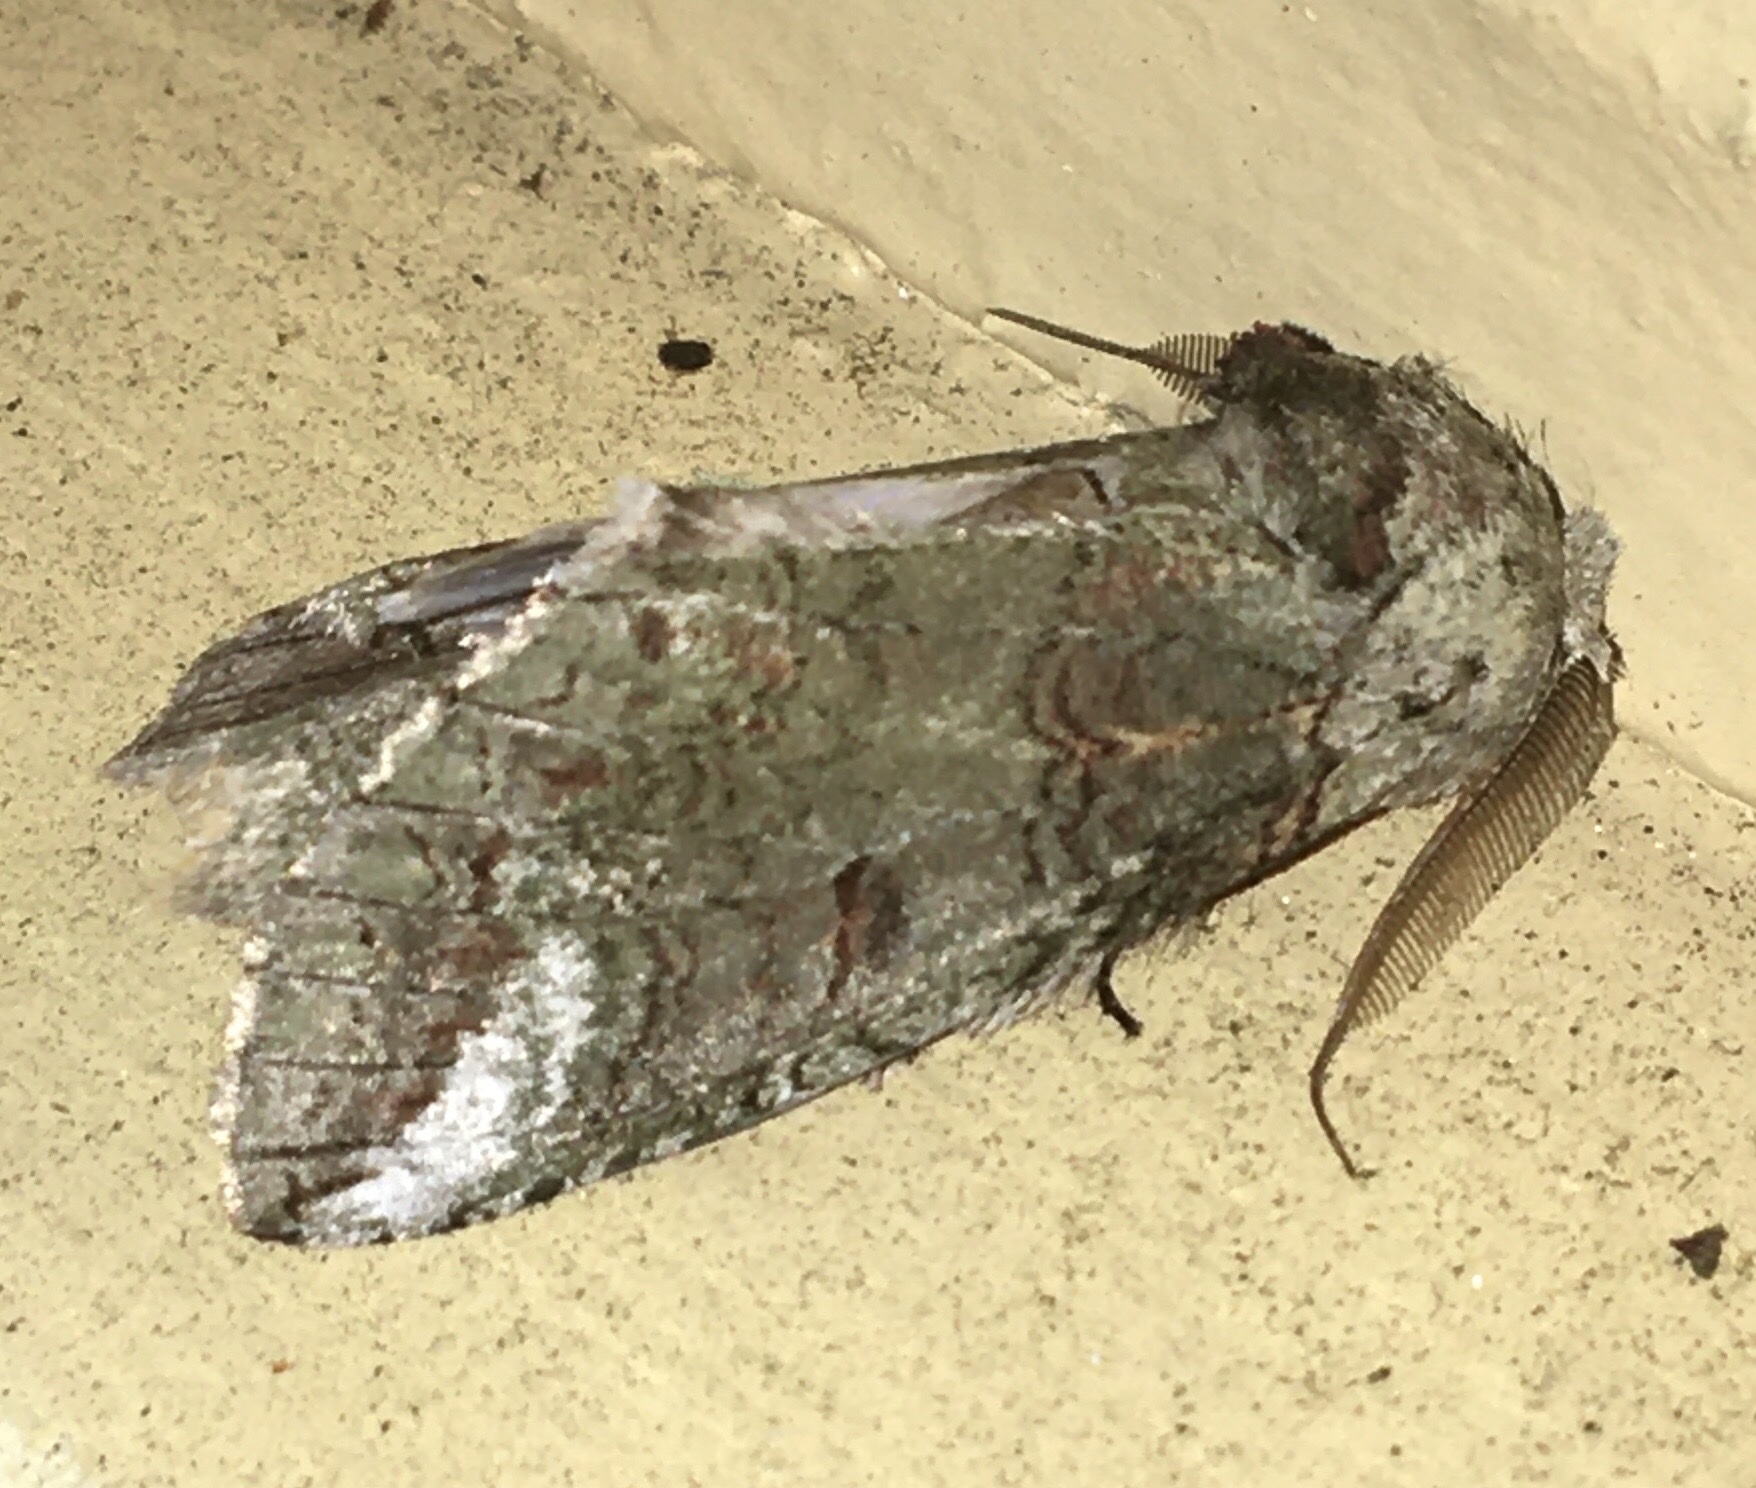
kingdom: Animalia
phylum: Arthropoda
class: Insecta
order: Lepidoptera
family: Notodontidae
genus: Heterocampa
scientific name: Heterocampa astartoides
